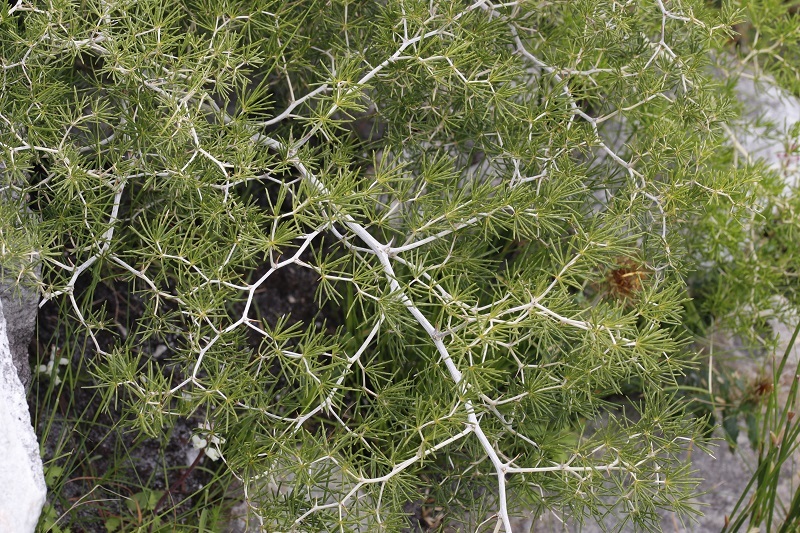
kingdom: Plantae
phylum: Tracheophyta
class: Liliopsida
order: Asparagales
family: Asparagaceae
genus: Asparagus
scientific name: Asparagus lignosus
